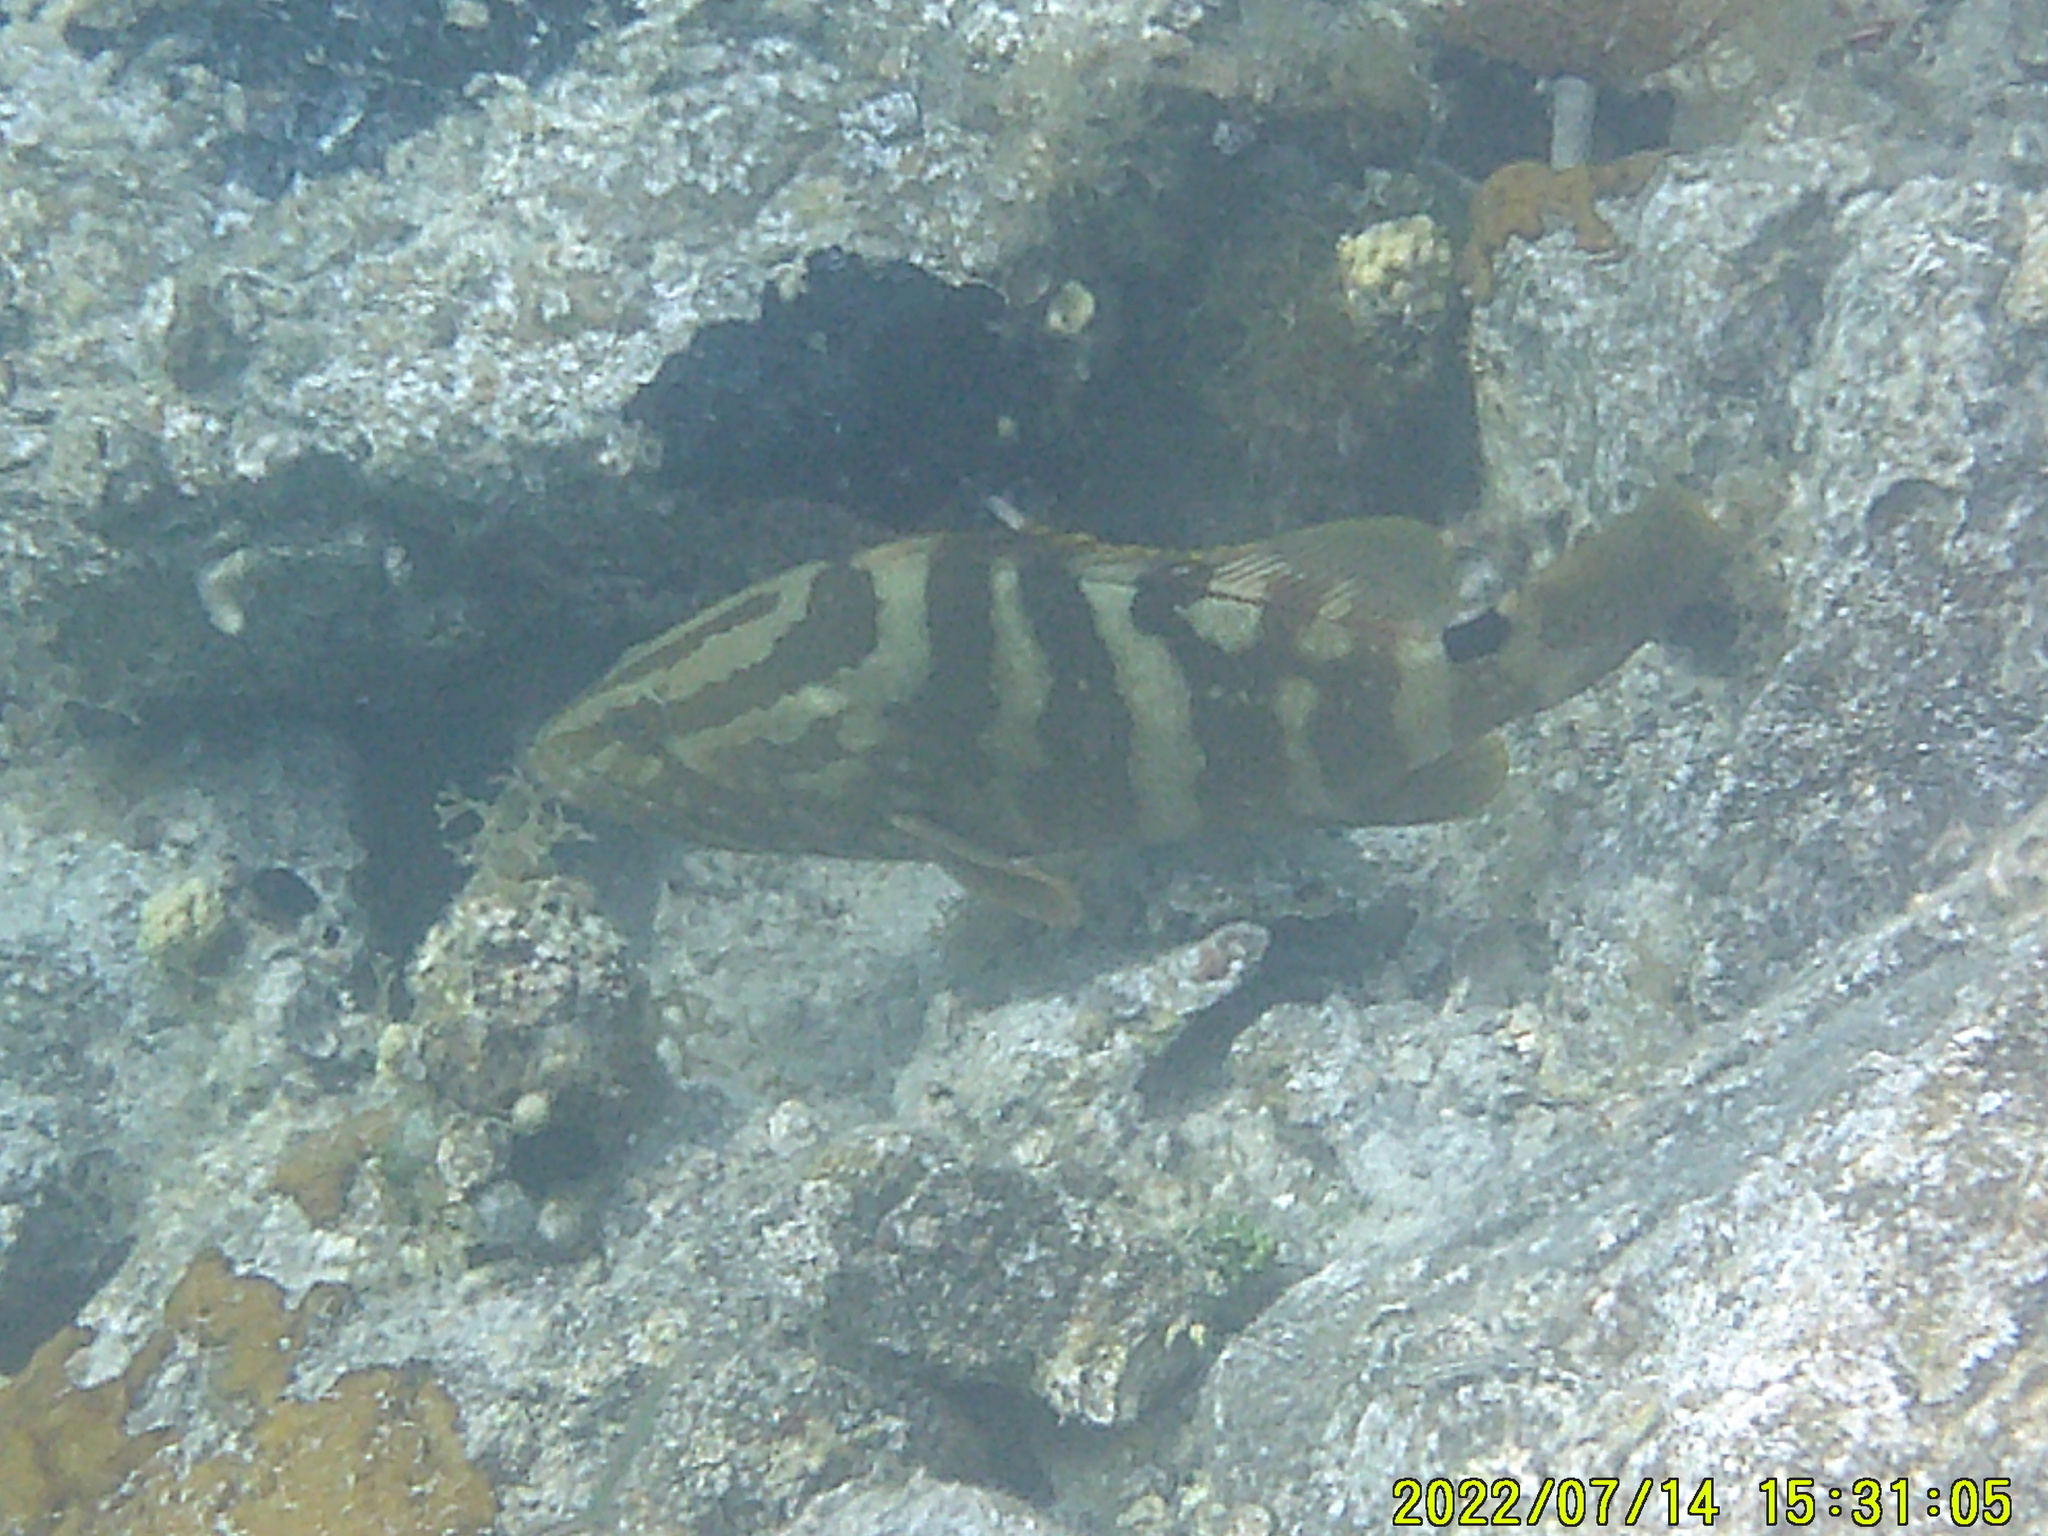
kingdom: Animalia
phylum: Chordata
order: Perciformes
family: Serranidae
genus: Epinephelus
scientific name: Epinephelus striatus
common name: Nassau grouper
